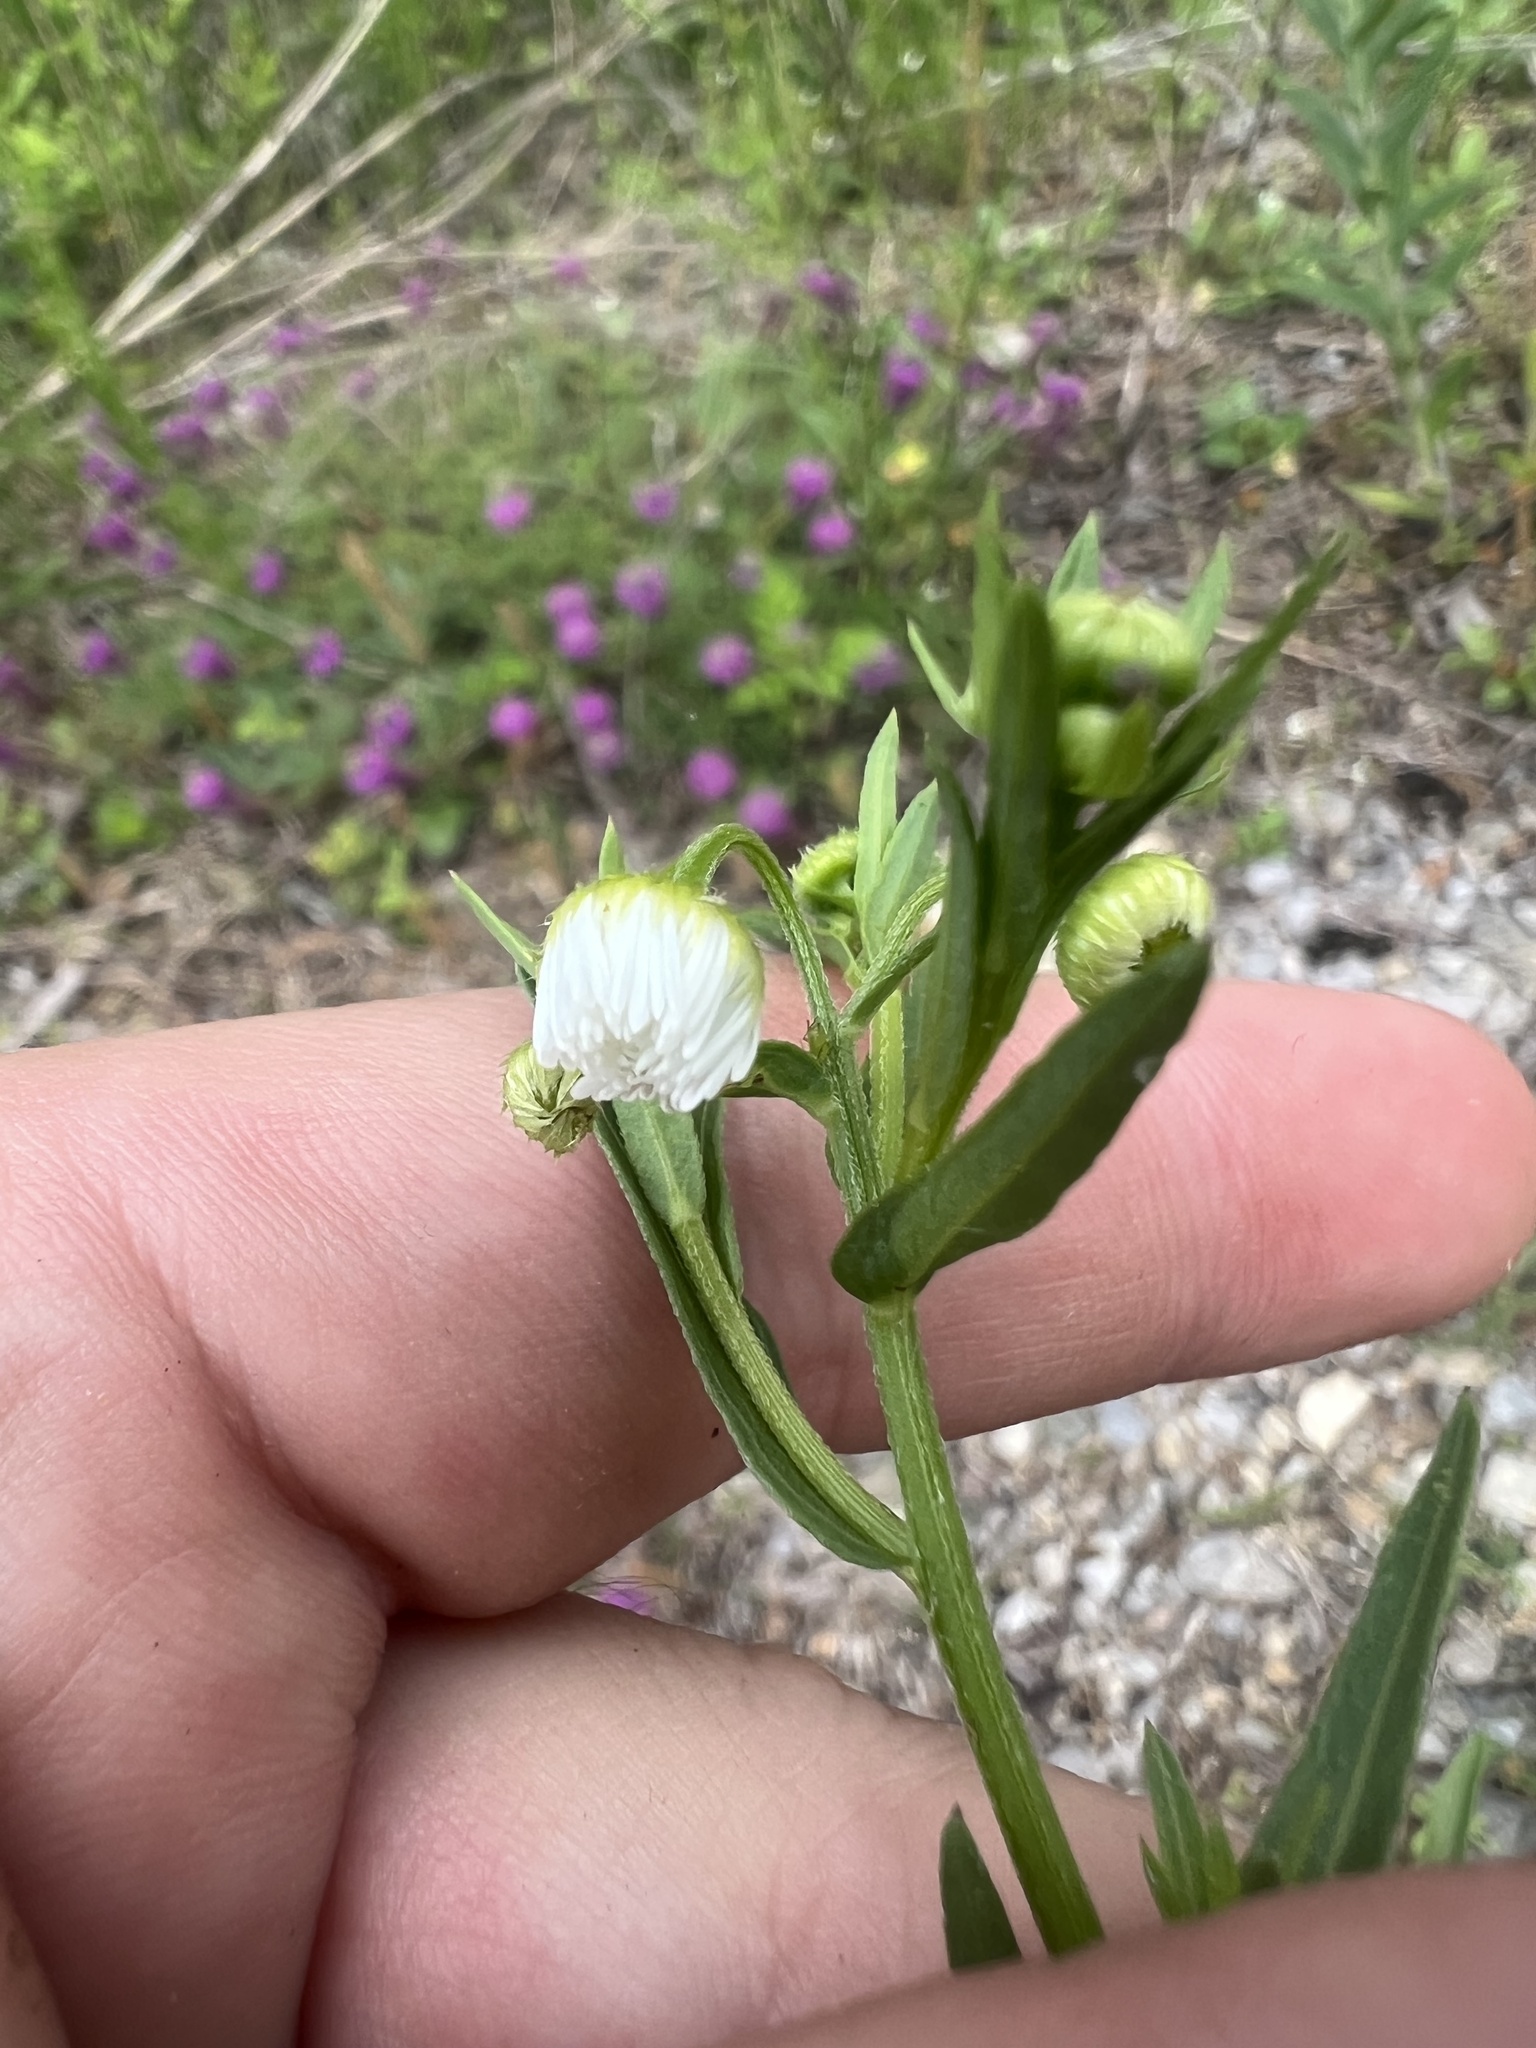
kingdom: Plantae
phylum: Tracheophyta
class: Magnoliopsida
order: Asterales
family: Asteraceae
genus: Erigeron
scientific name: Erigeron philadelphicus
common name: Robin's-plantain
